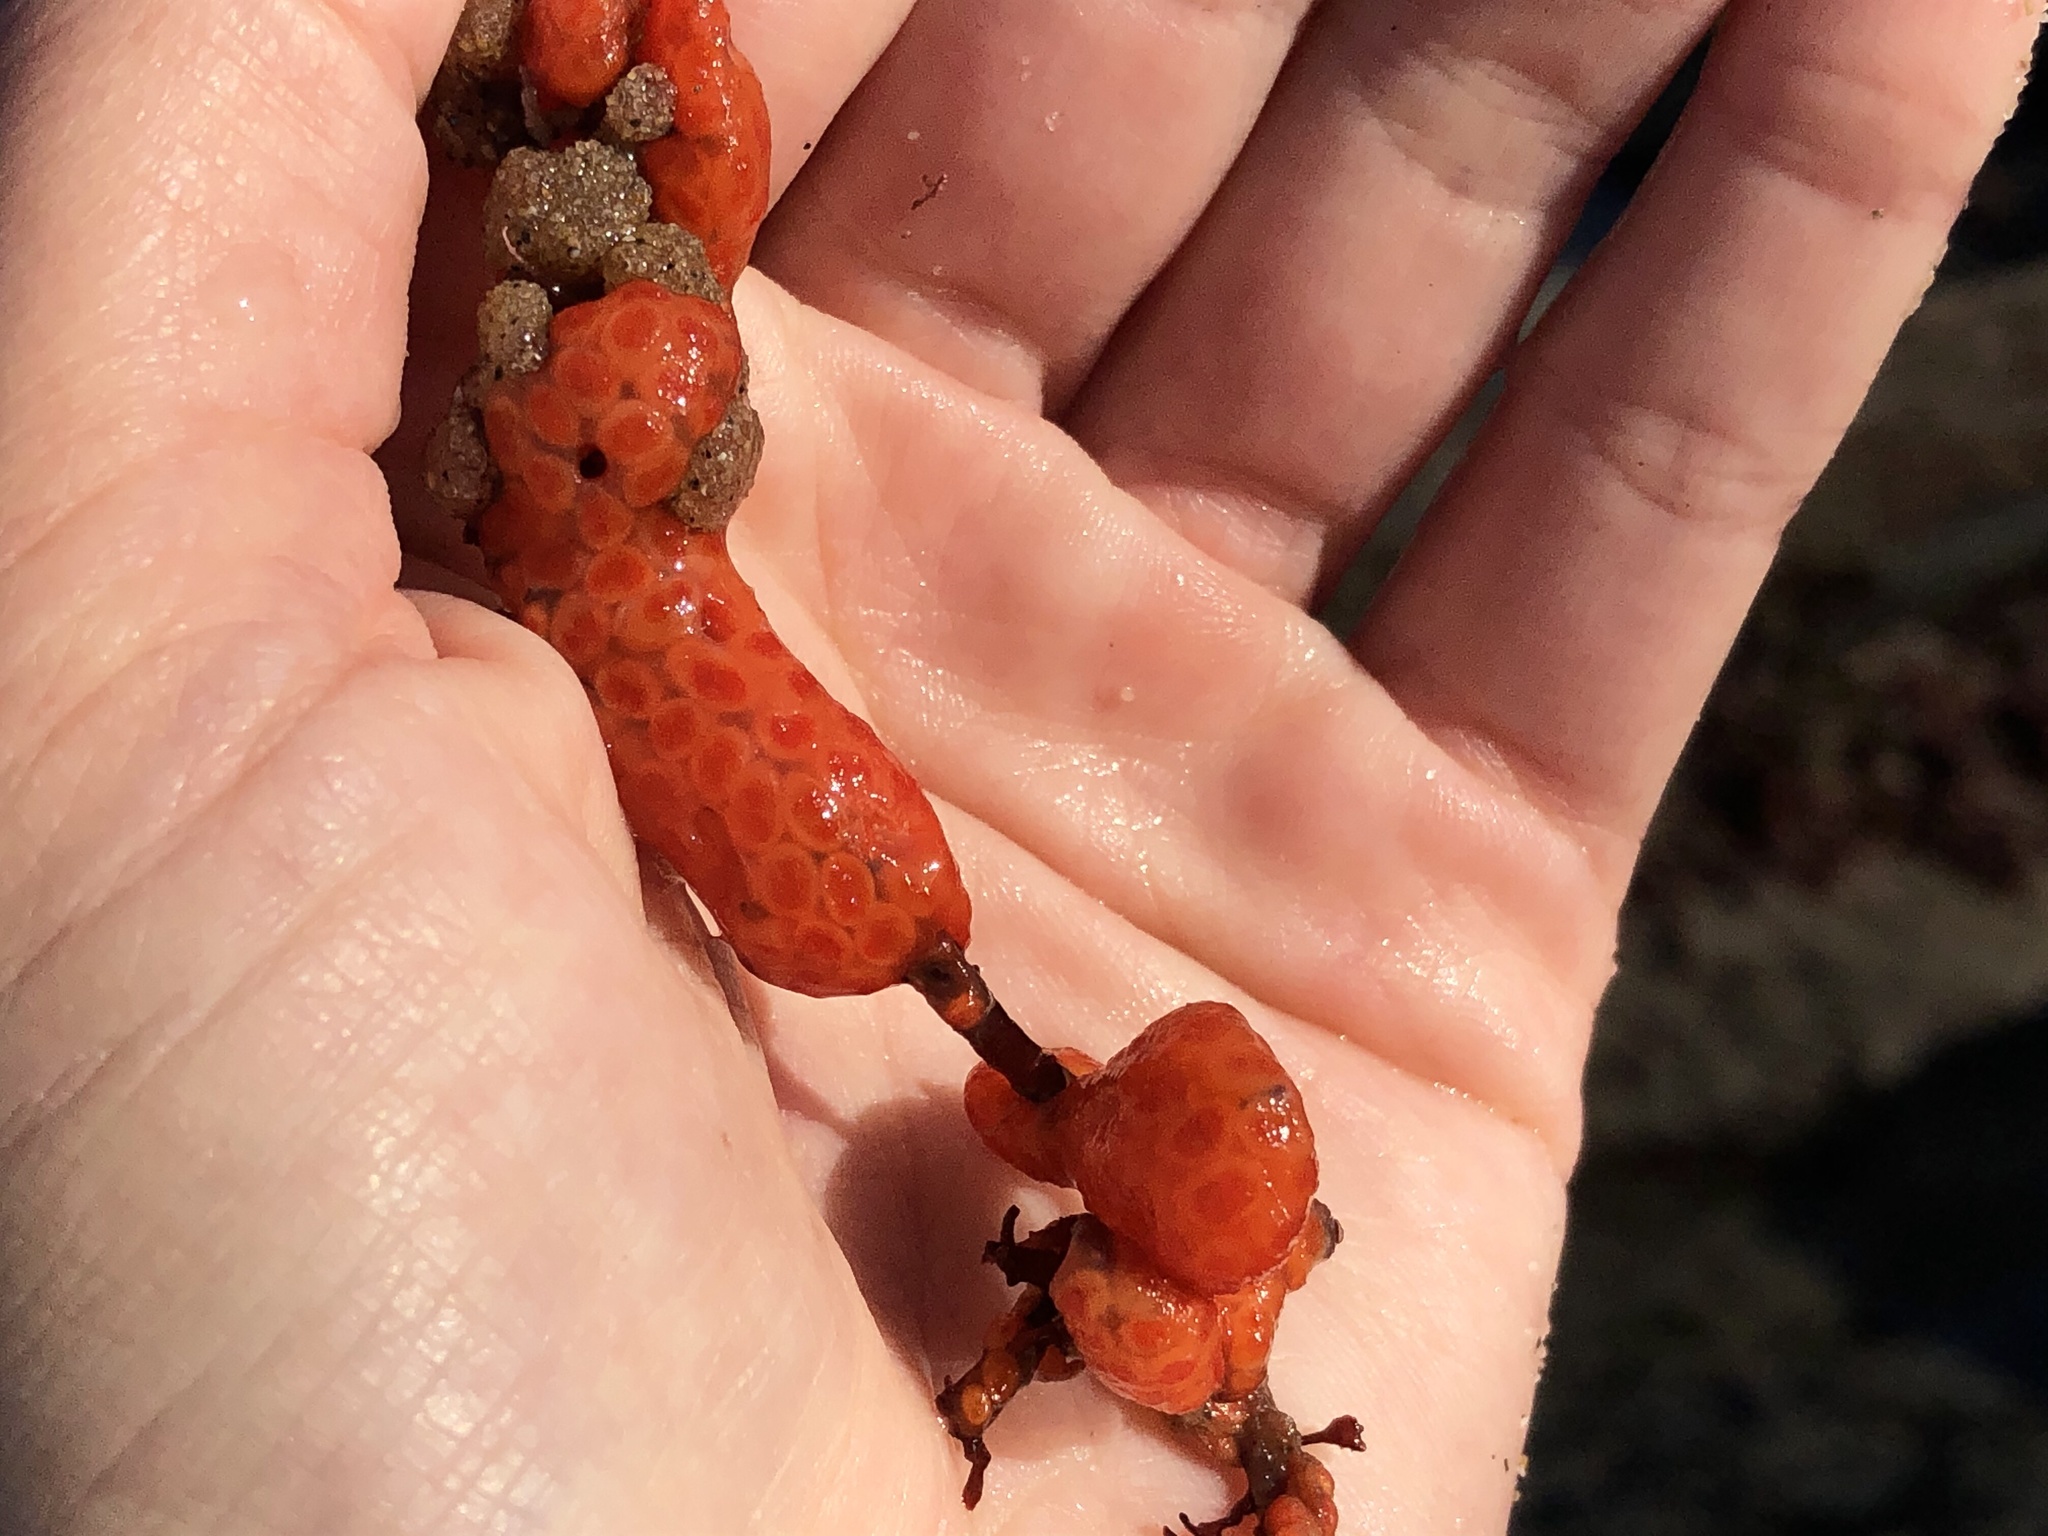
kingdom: Animalia
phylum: Chordata
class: Ascidiacea
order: Stolidobranchia
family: Styelidae
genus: Metandrocarpa
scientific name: Metandrocarpa dura
